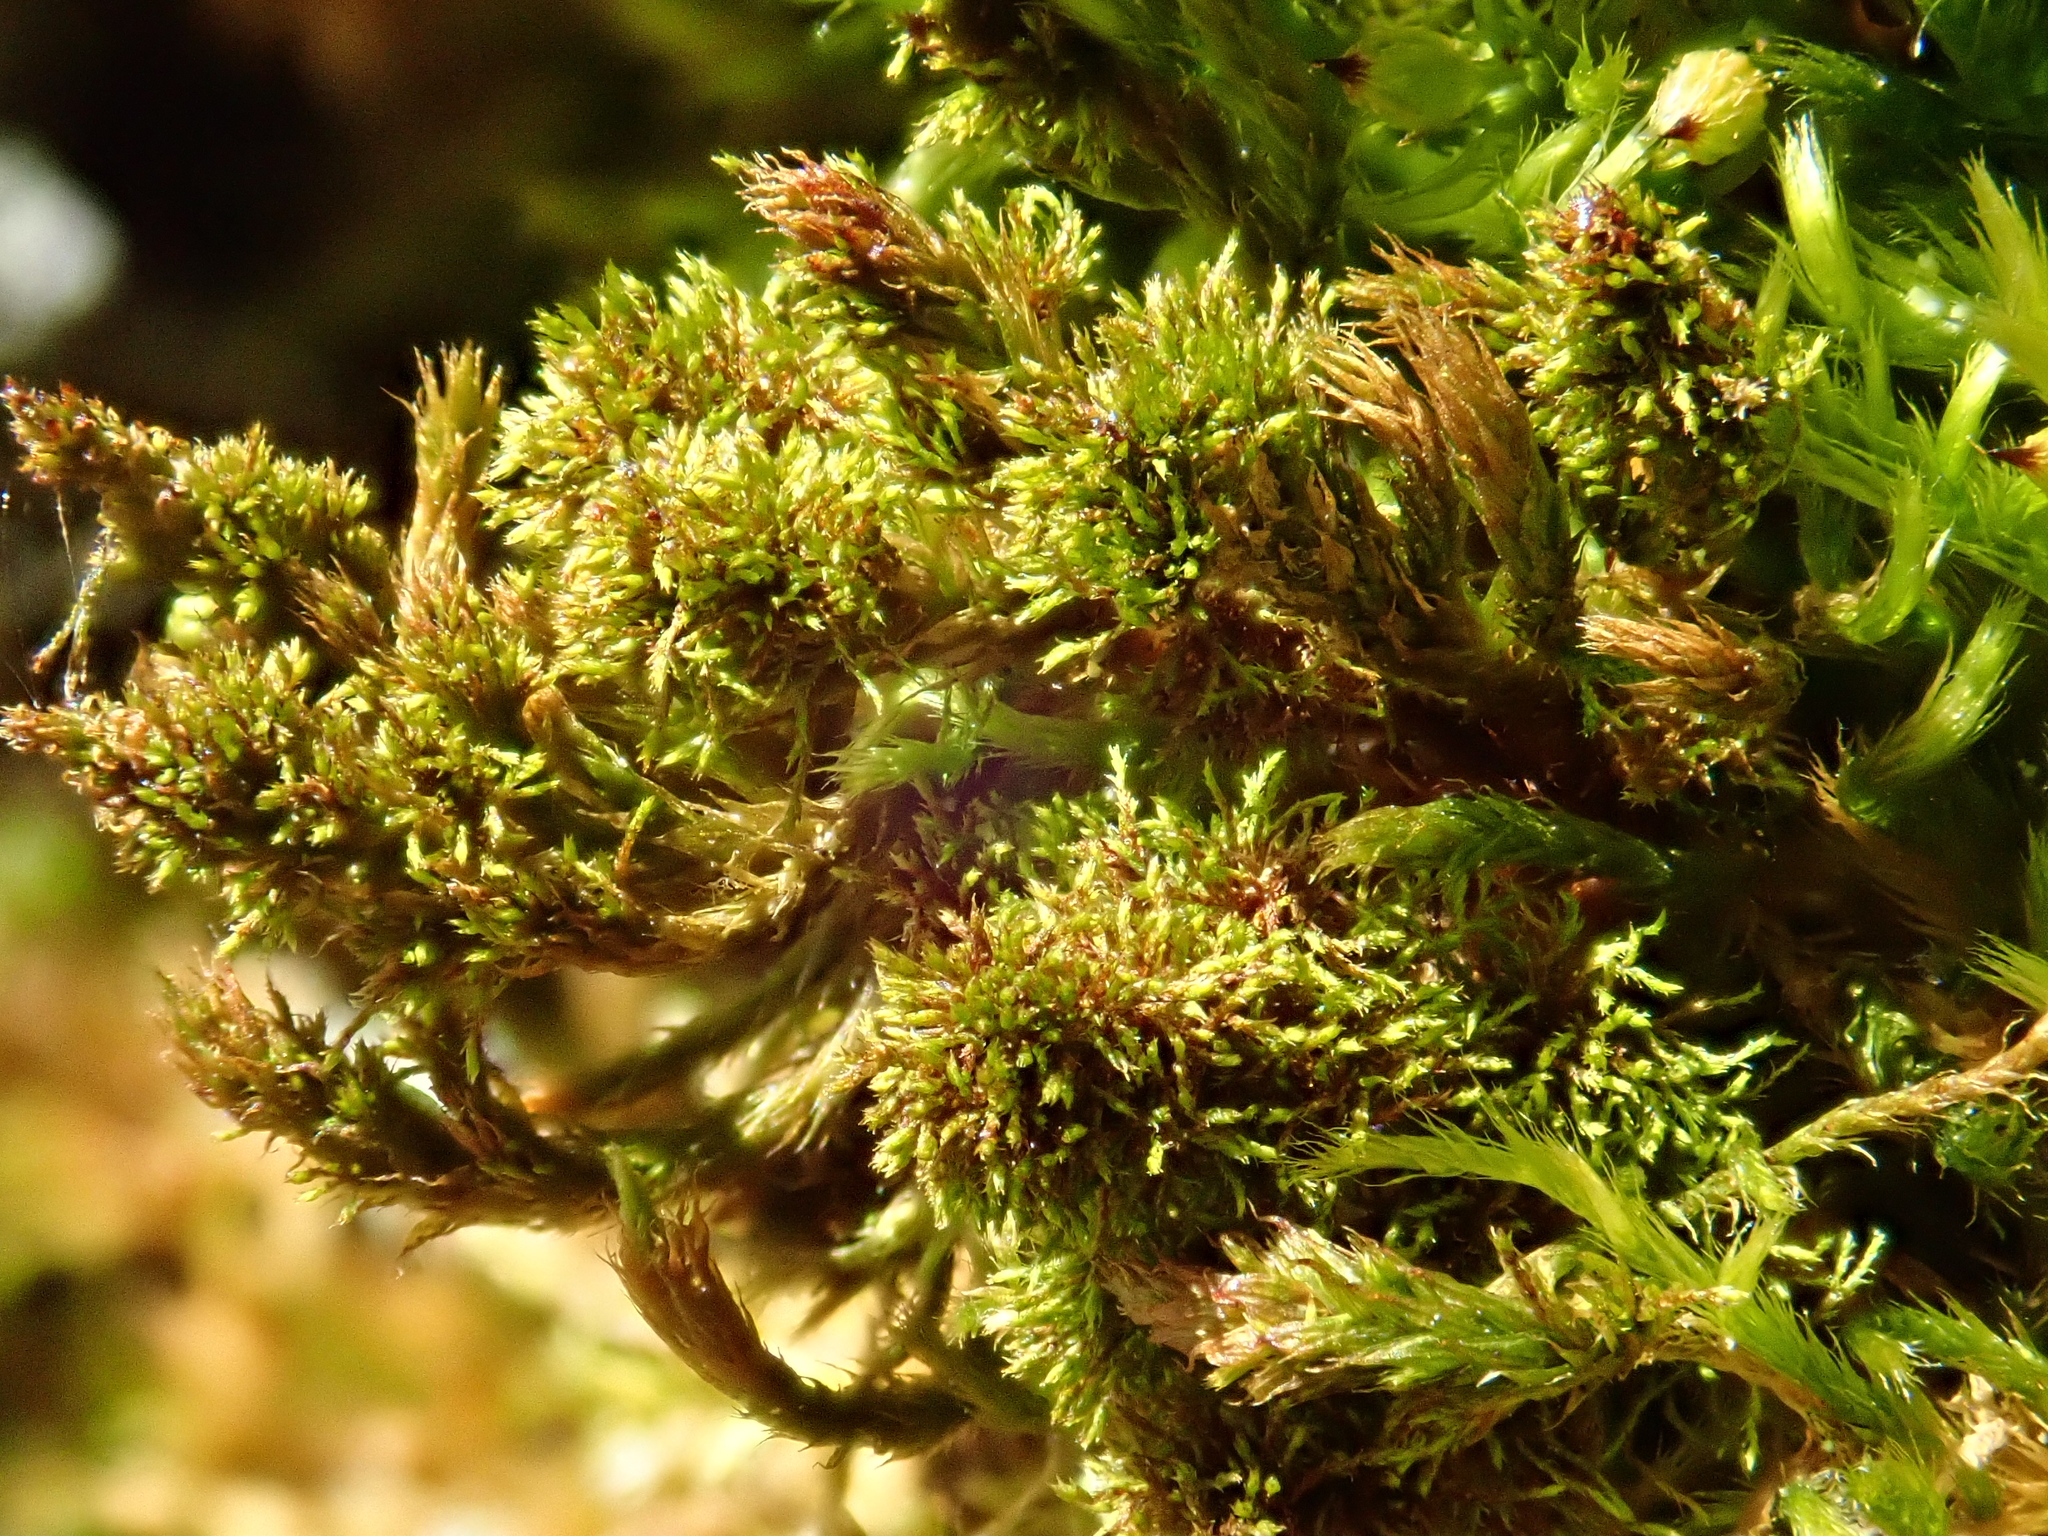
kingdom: Plantae
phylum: Bryophyta
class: Bryopsida
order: Hypnales
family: Leucodontaceae
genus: Leucodon
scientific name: Leucodon sciuroides
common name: Squirrel-tail moss
